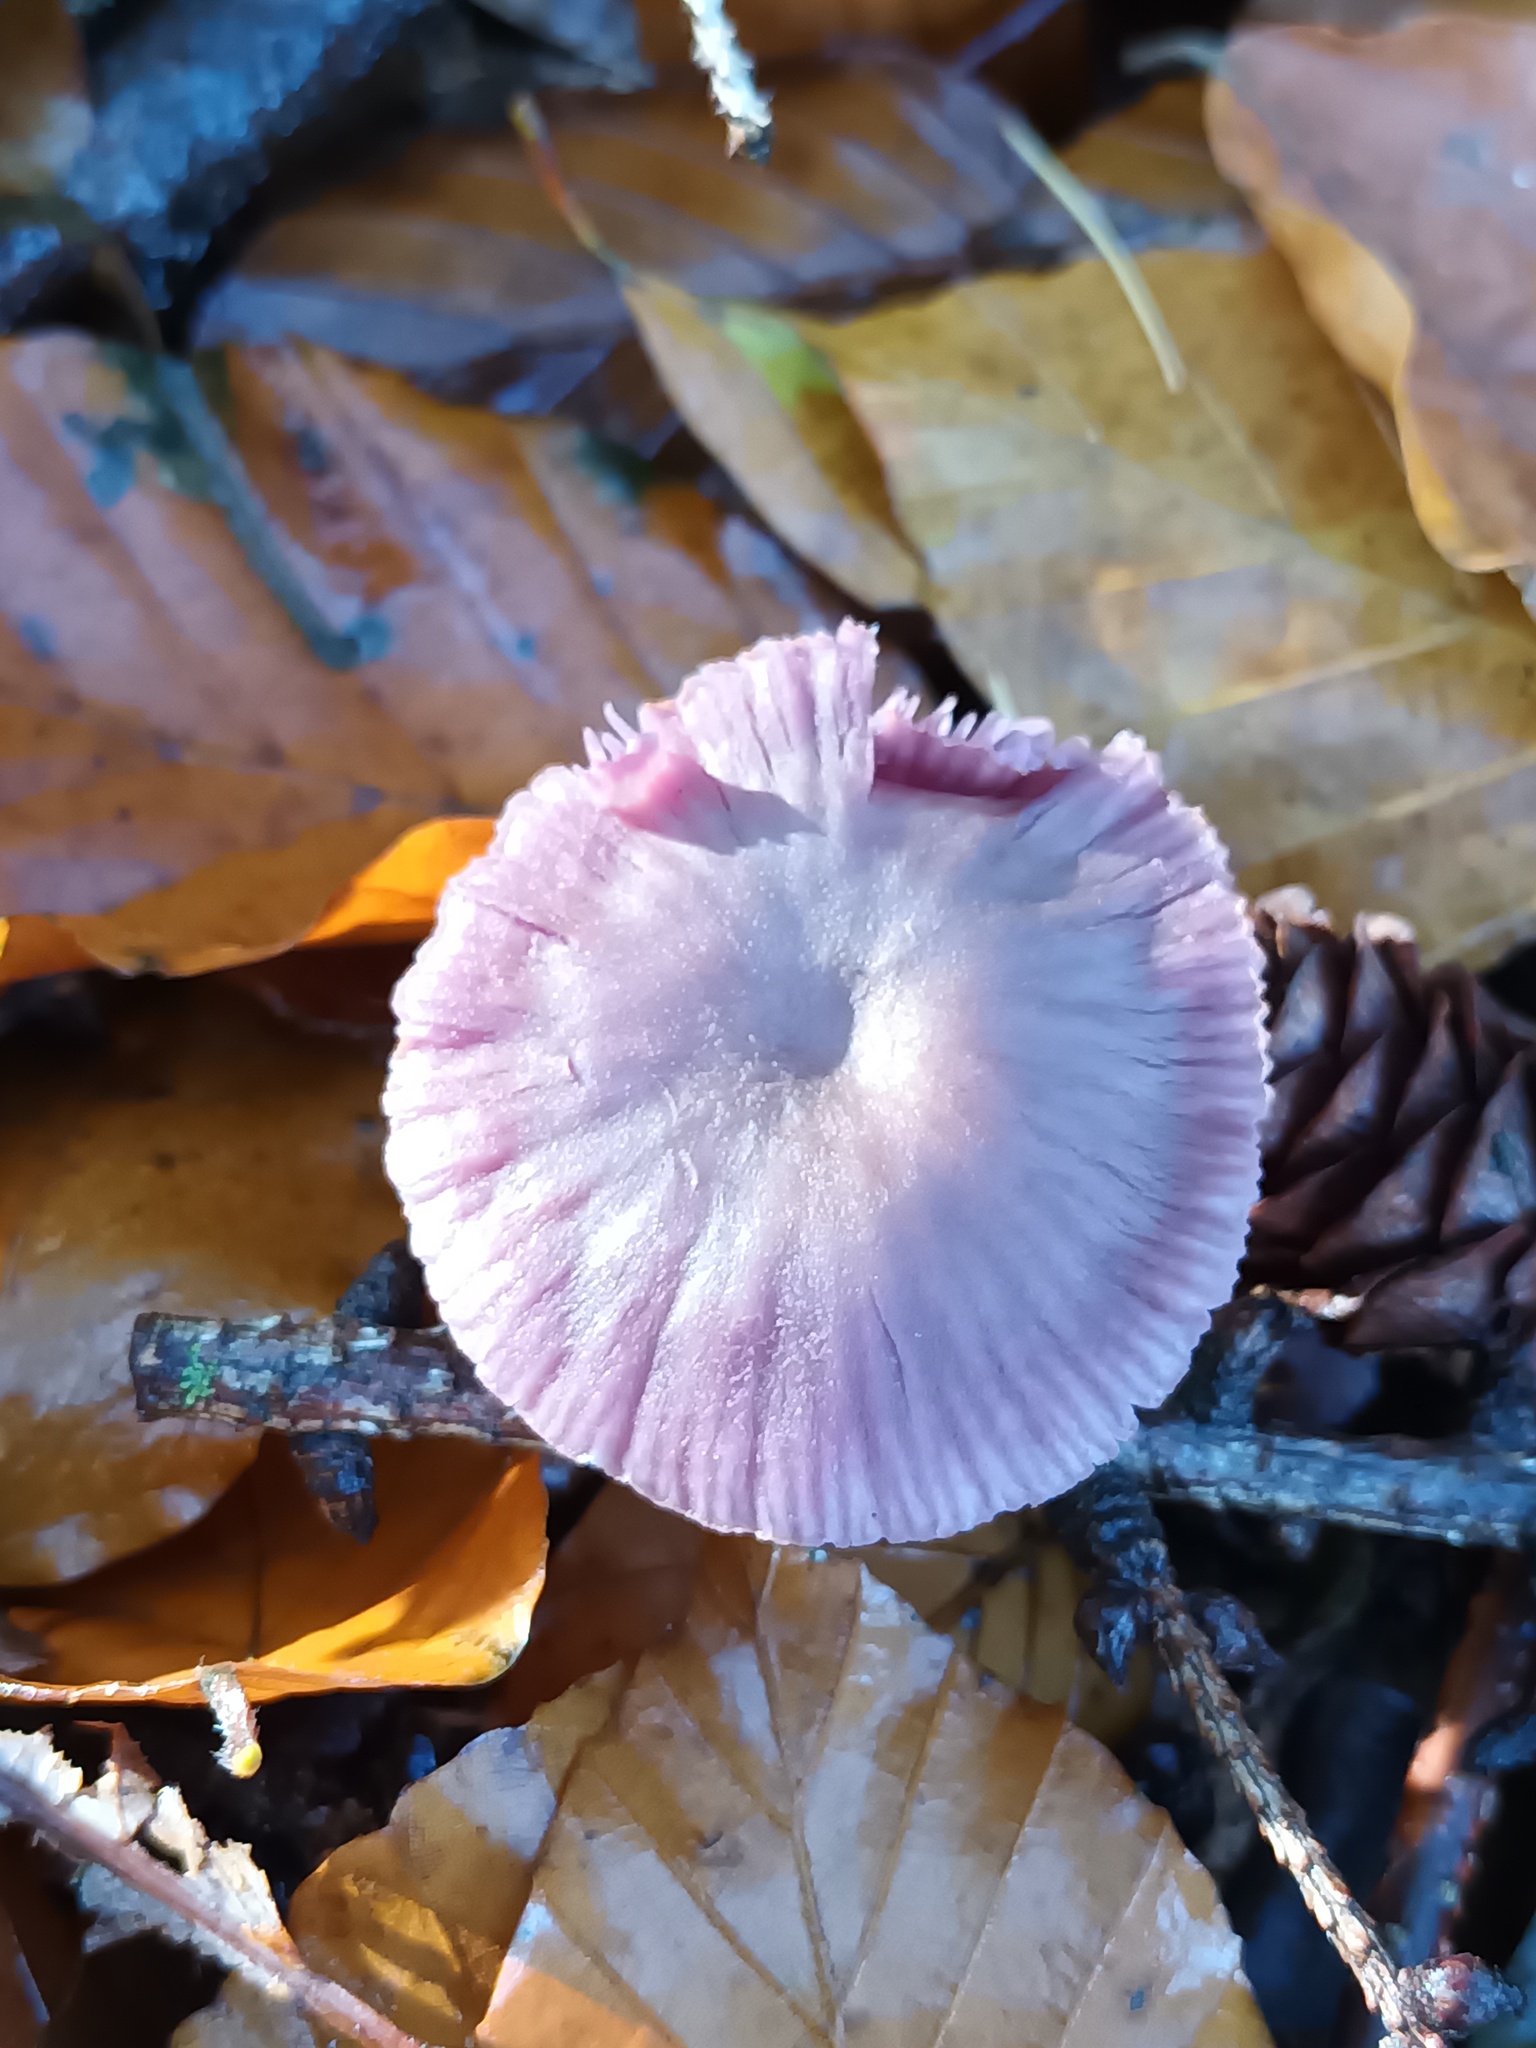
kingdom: Fungi
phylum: Basidiomycota
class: Agaricomycetes
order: Agaricales
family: Hydnangiaceae
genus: Laccaria
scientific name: Laccaria amethystina
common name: Amethyst deceiver
